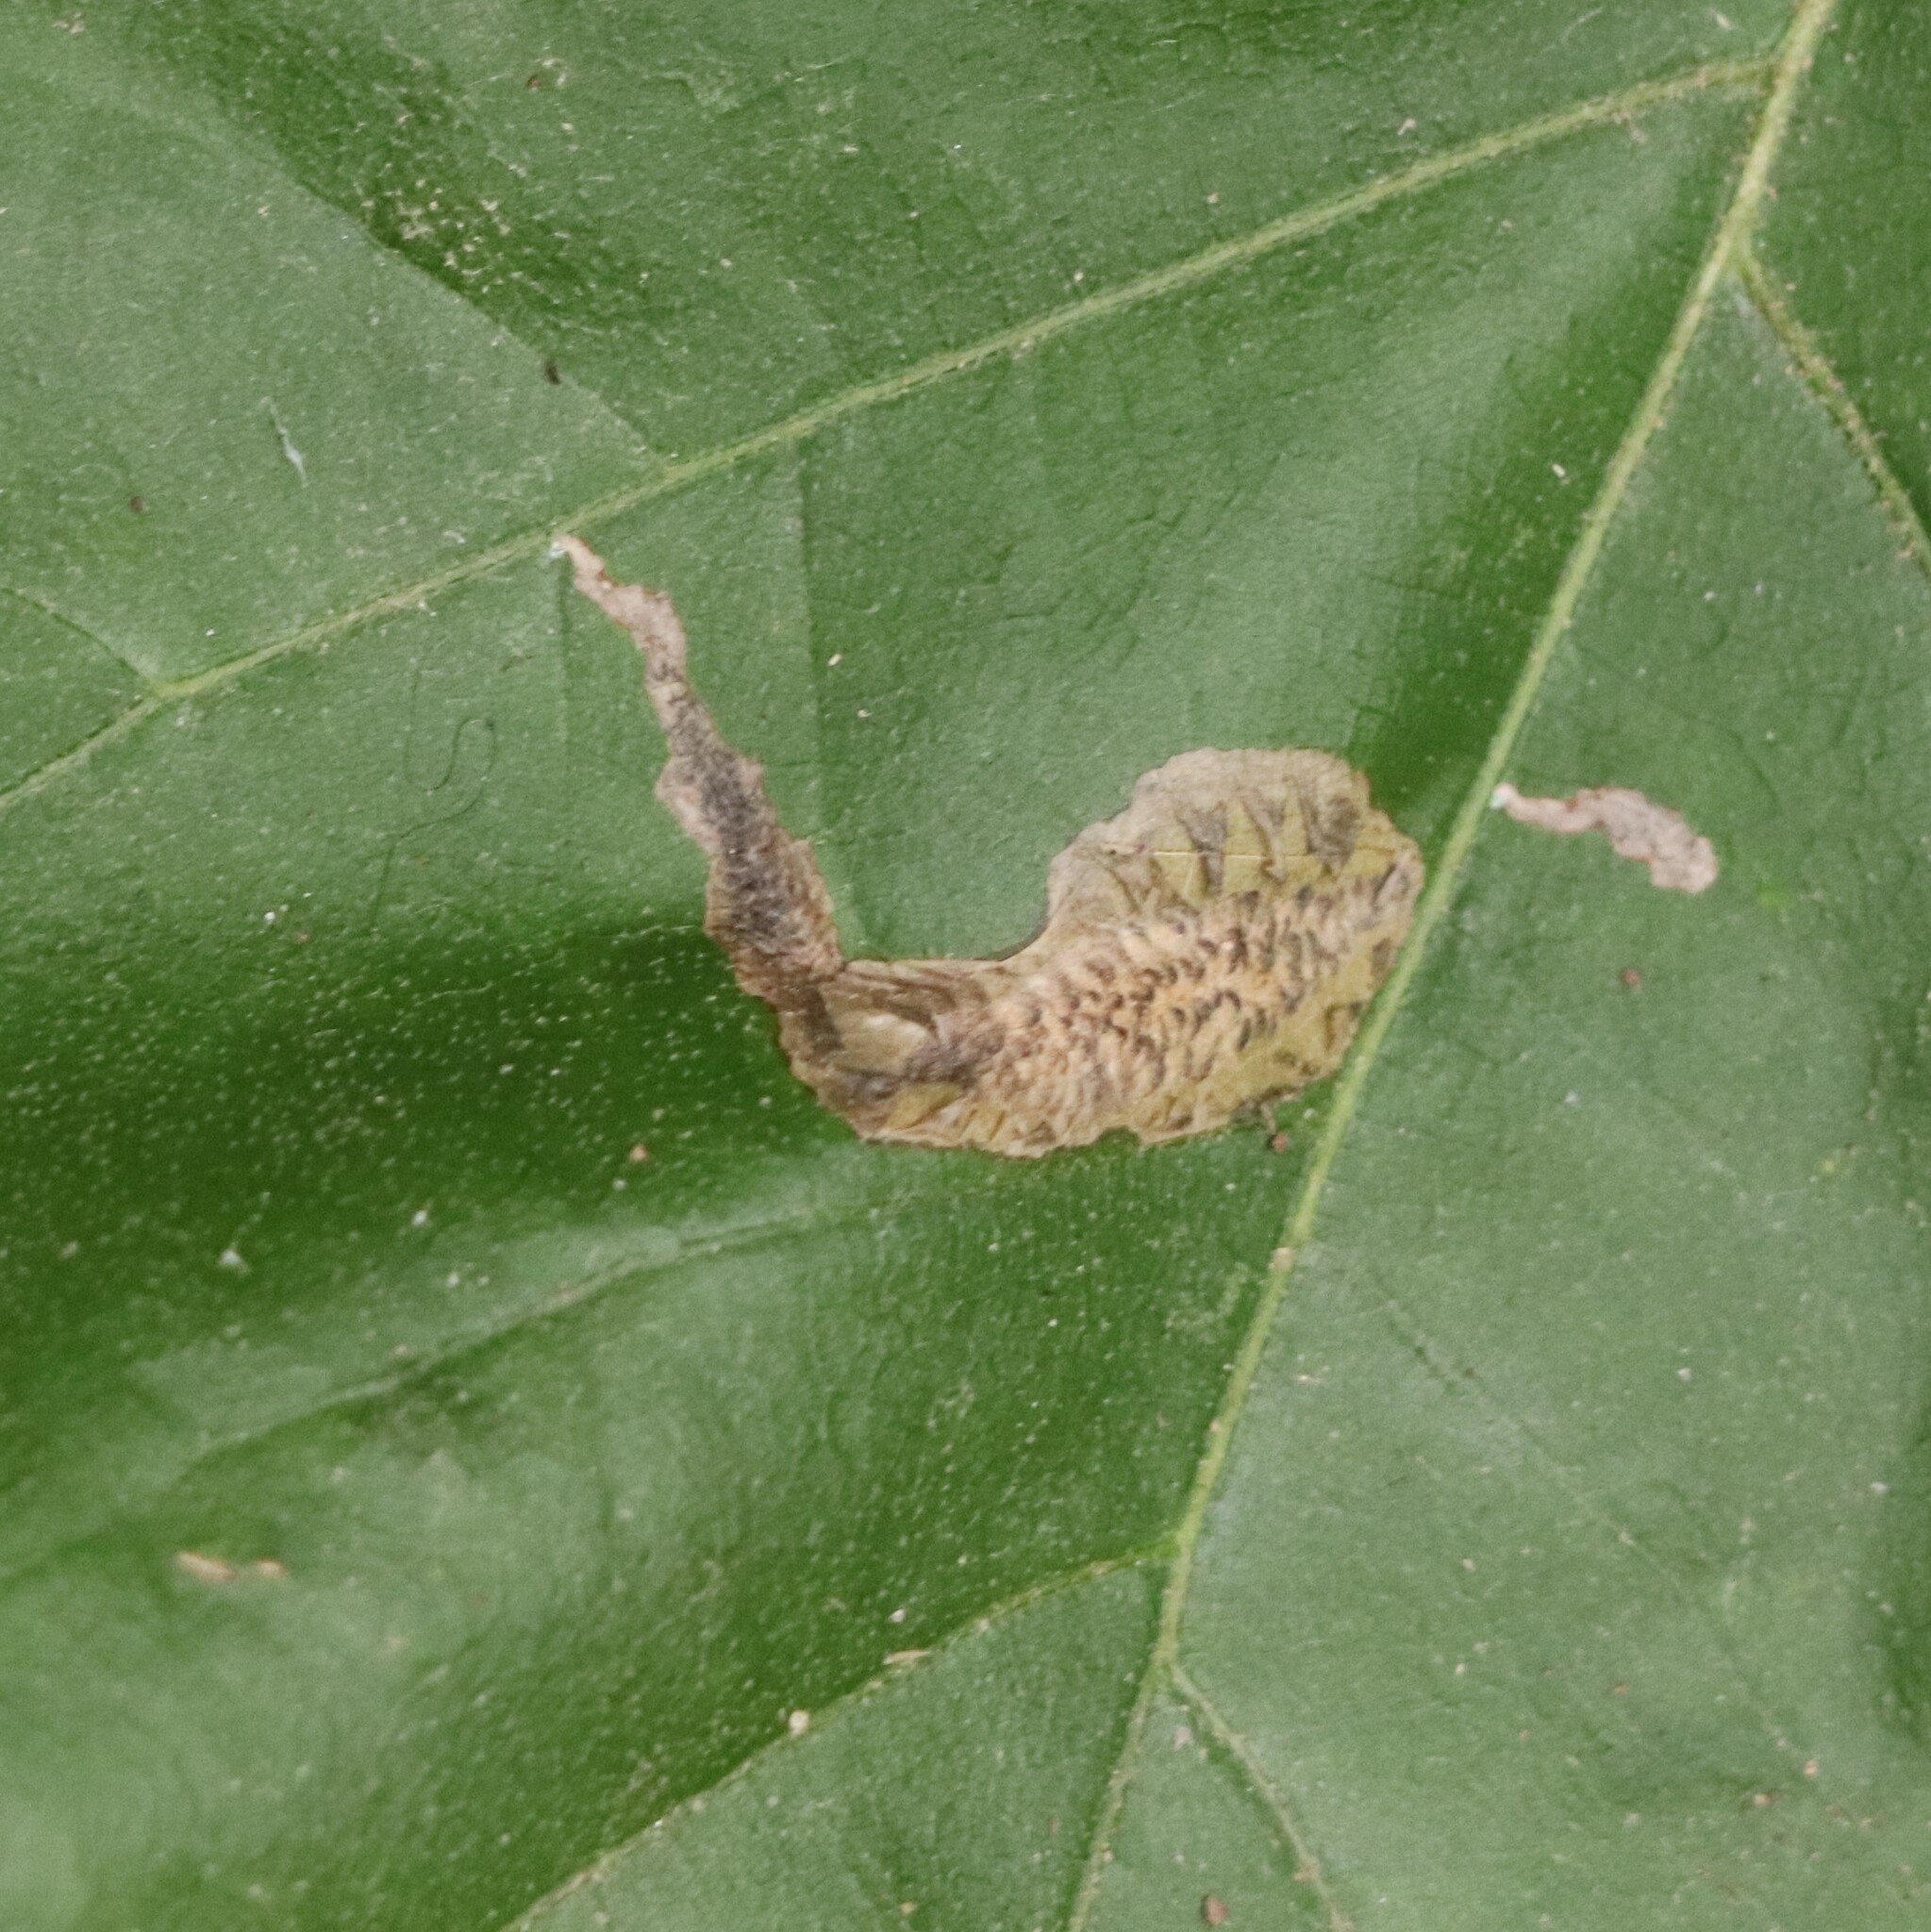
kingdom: Animalia
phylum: Arthropoda
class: Insecta
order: Lepidoptera
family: Tischeriidae
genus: Coptotriche
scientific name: Coptotriche castaneaeella
